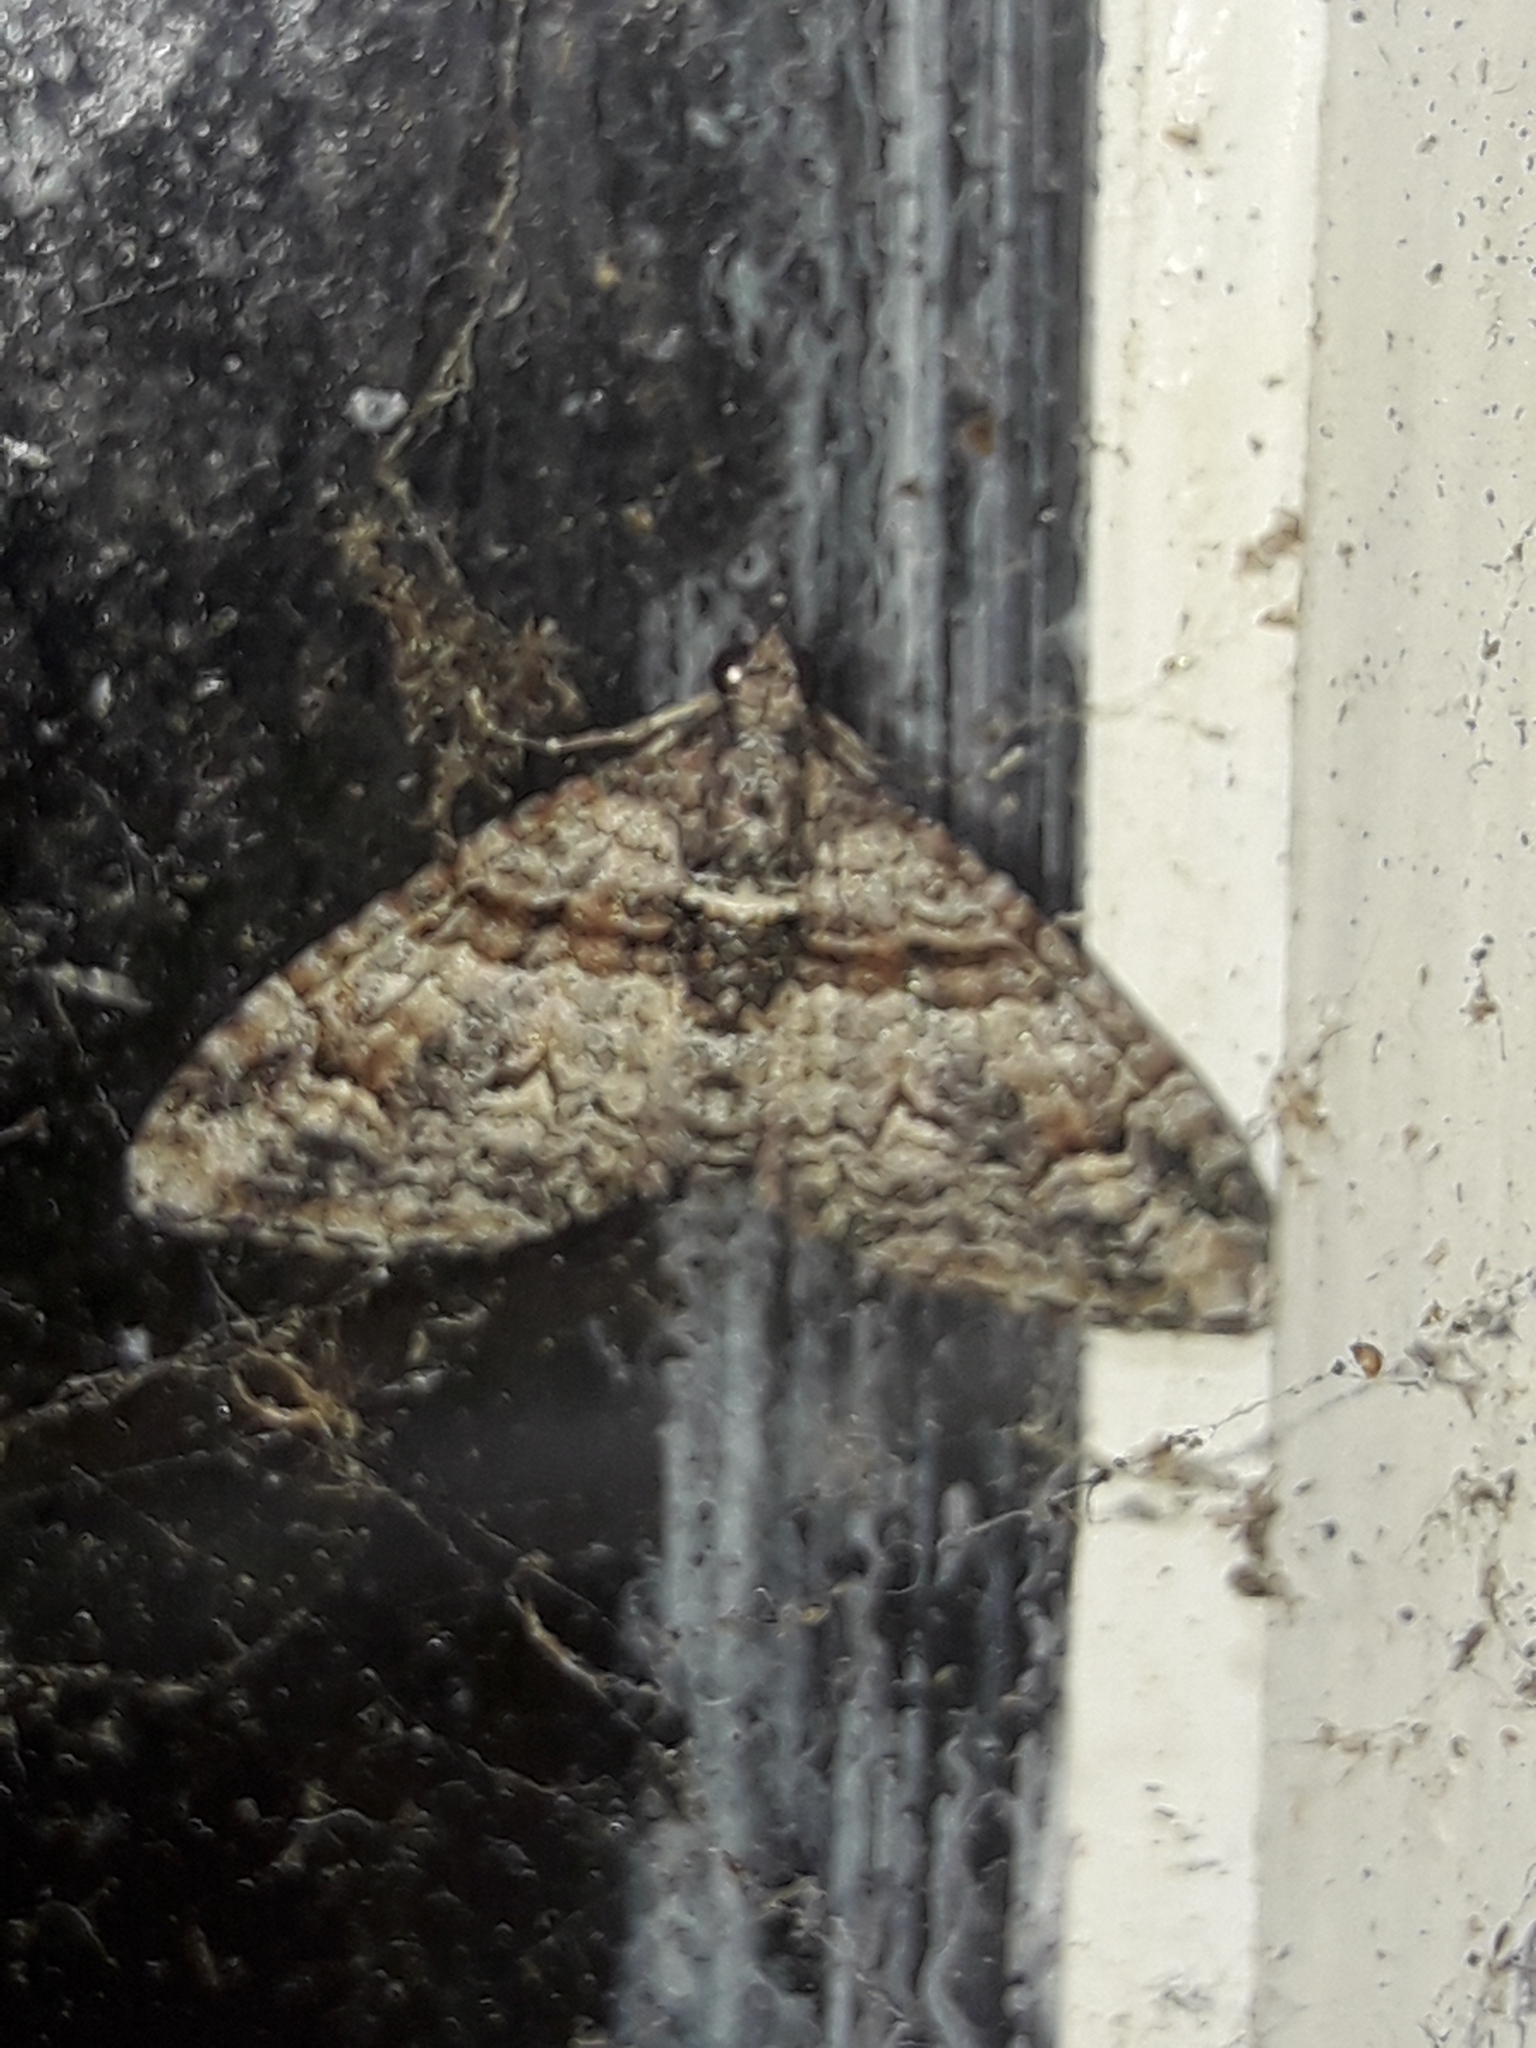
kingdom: Animalia
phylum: Arthropoda
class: Insecta
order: Lepidoptera
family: Geometridae
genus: Phrissogonus
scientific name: Phrissogonus laticostata
